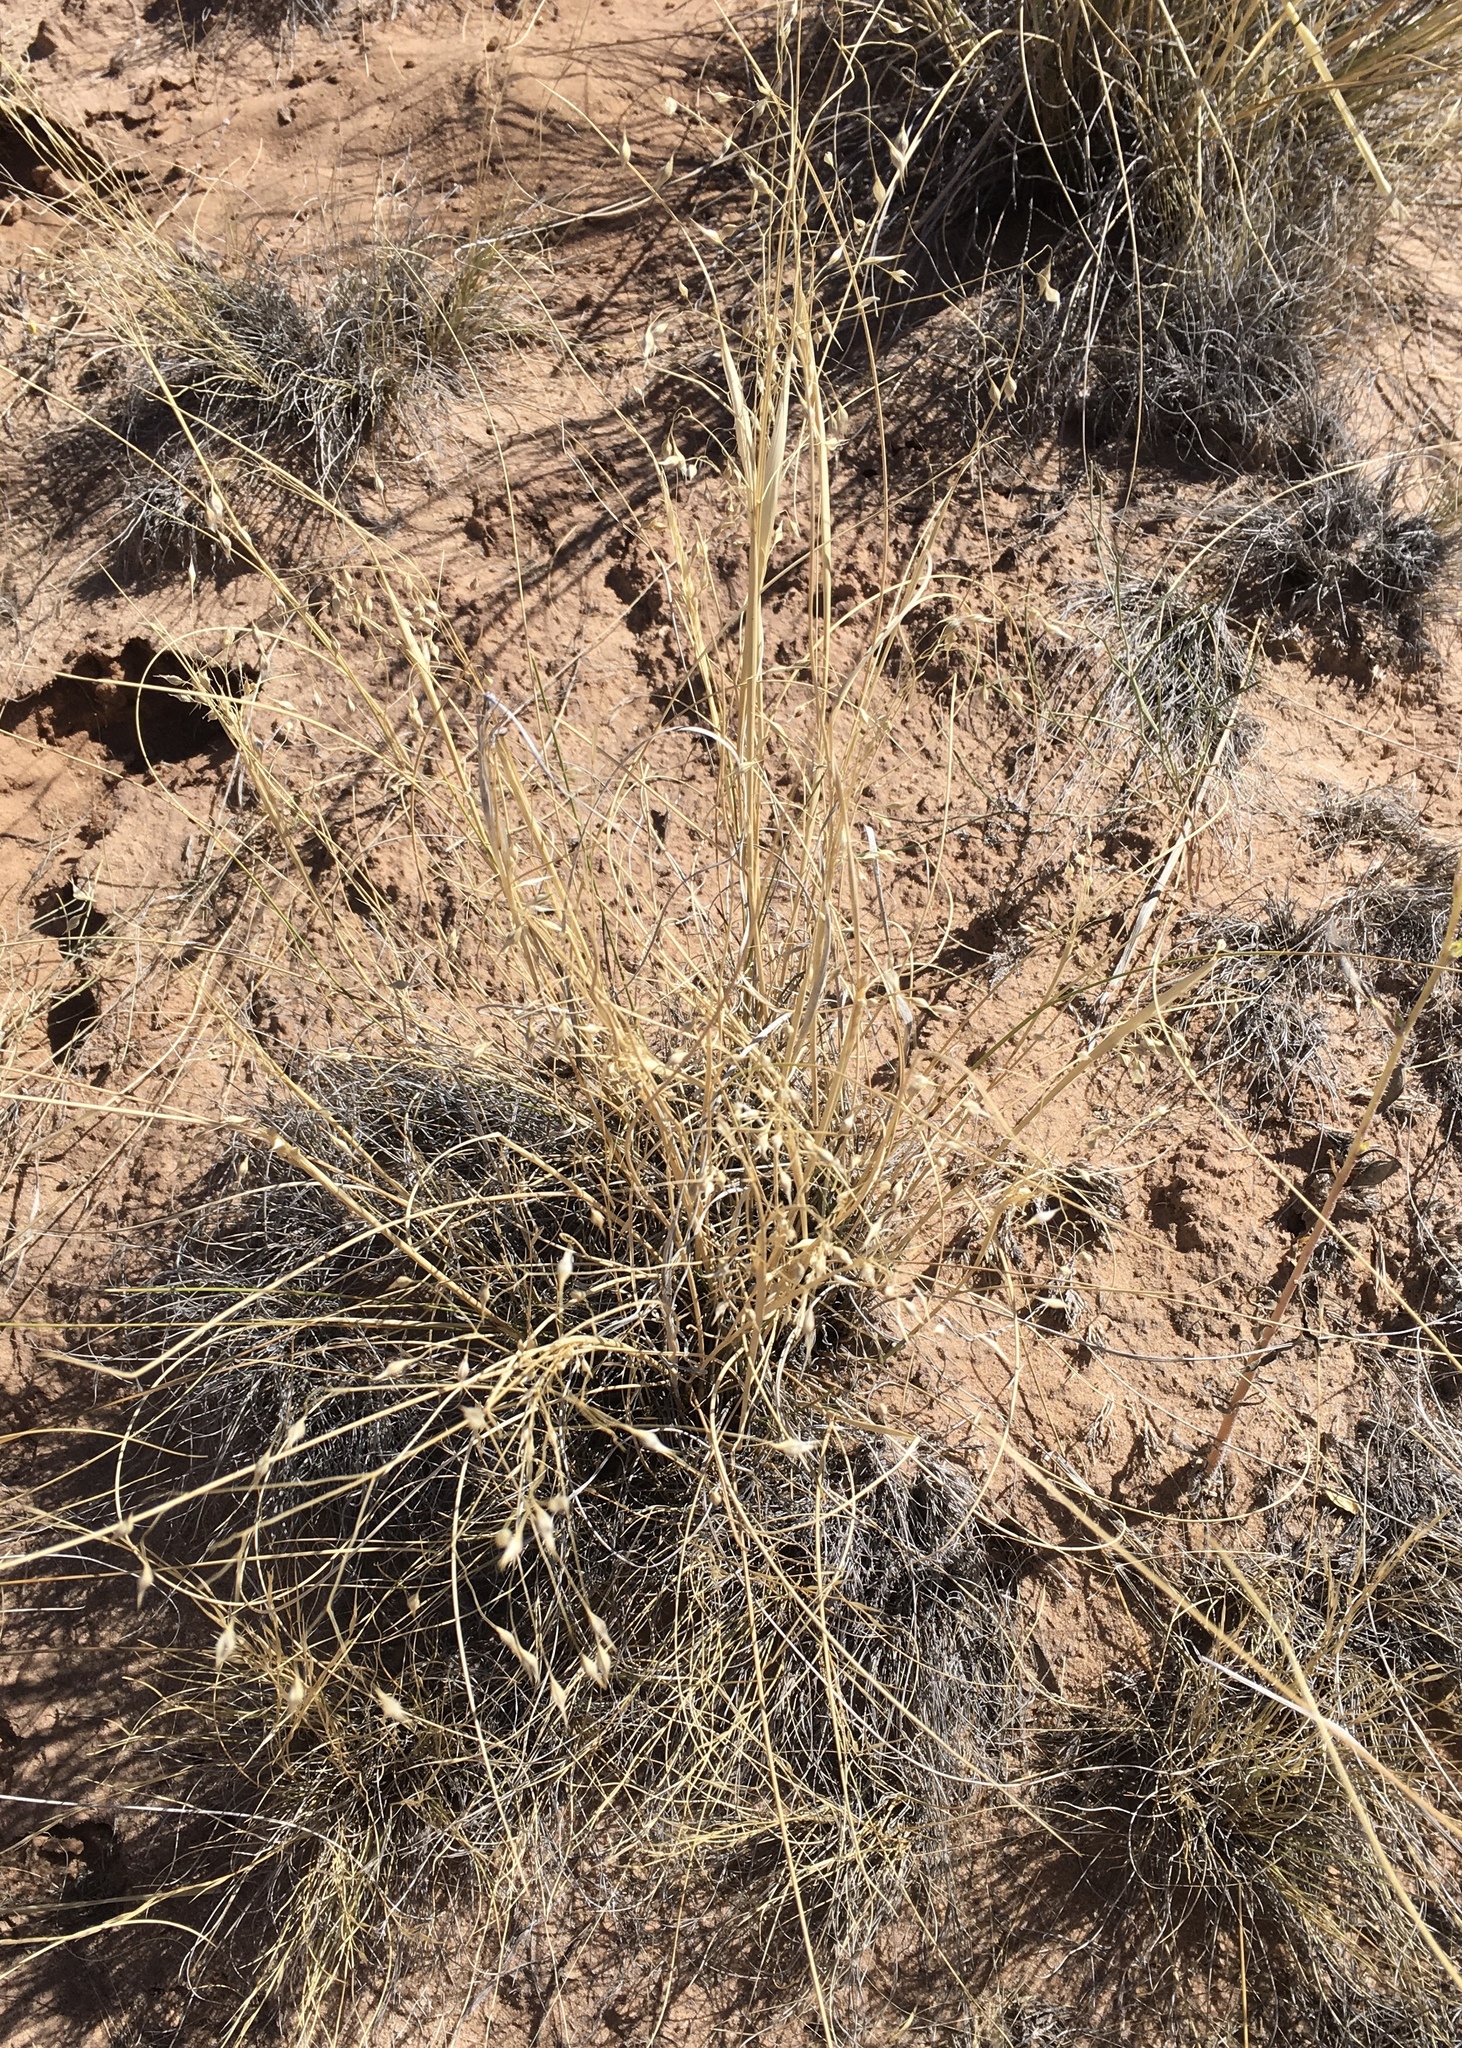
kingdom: Plantae
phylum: Tracheophyta
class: Liliopsida
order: Poales
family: Poaceae
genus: Eriocoma
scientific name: Eriocoma hymenoides
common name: Indian mountain ricegrass
